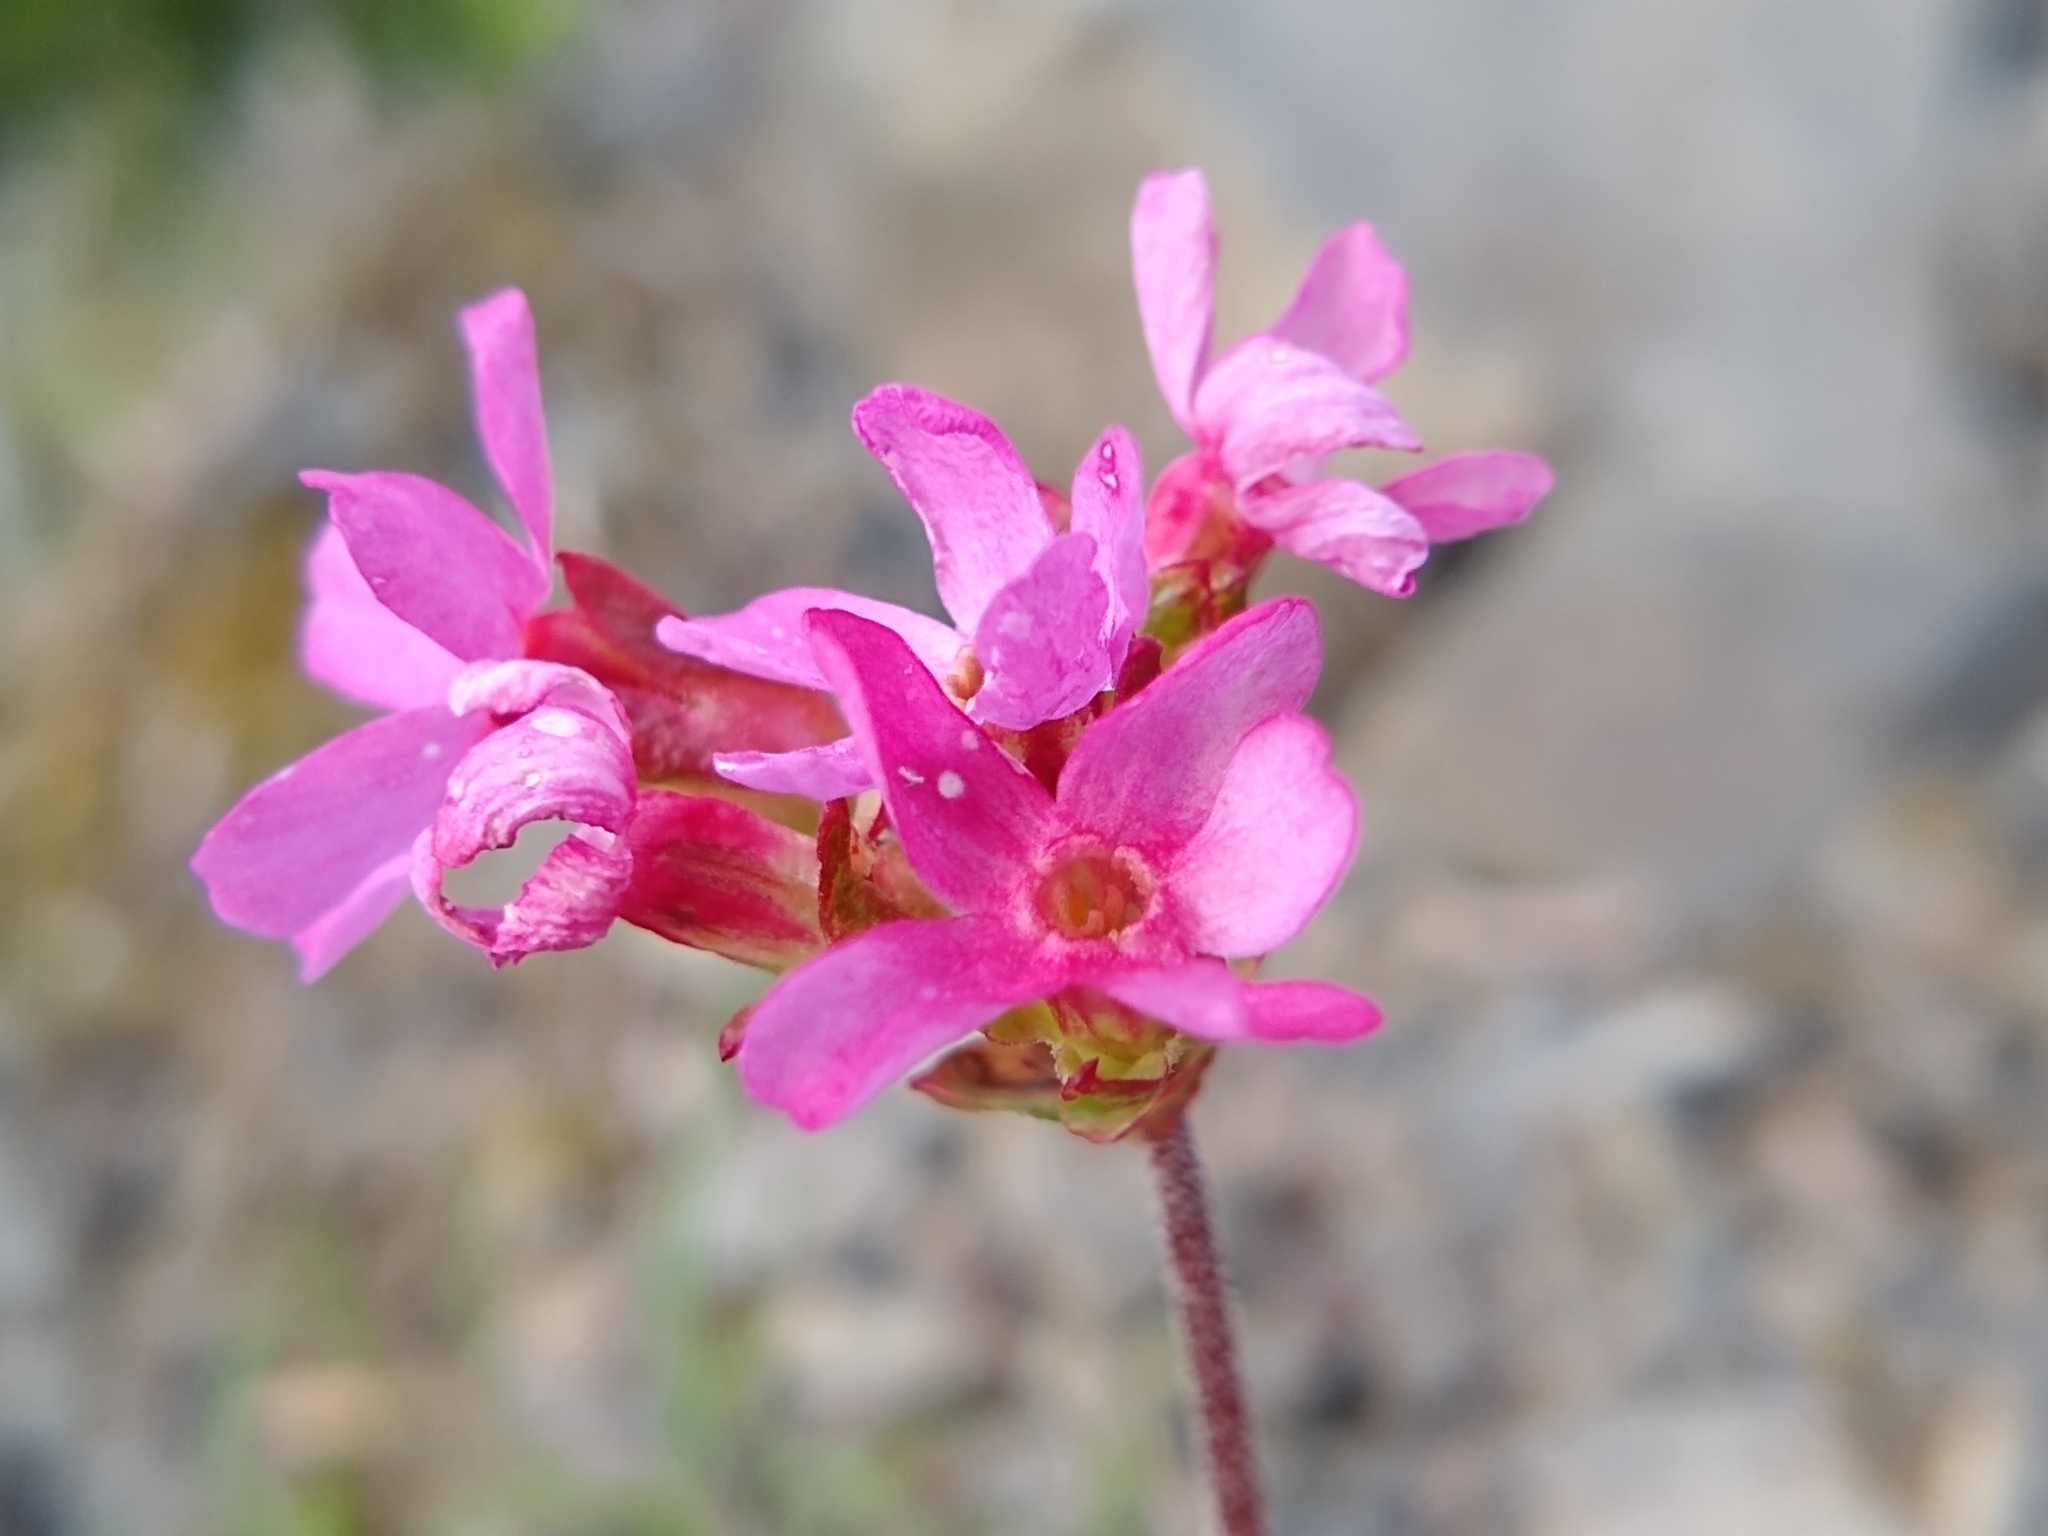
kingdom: Plantae
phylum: Tracheophyta
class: Magnoliopsida
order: Ericales
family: Primulaceae
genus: Androsace
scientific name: Androsace laevigata
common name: Cliff dwarf-primrose
